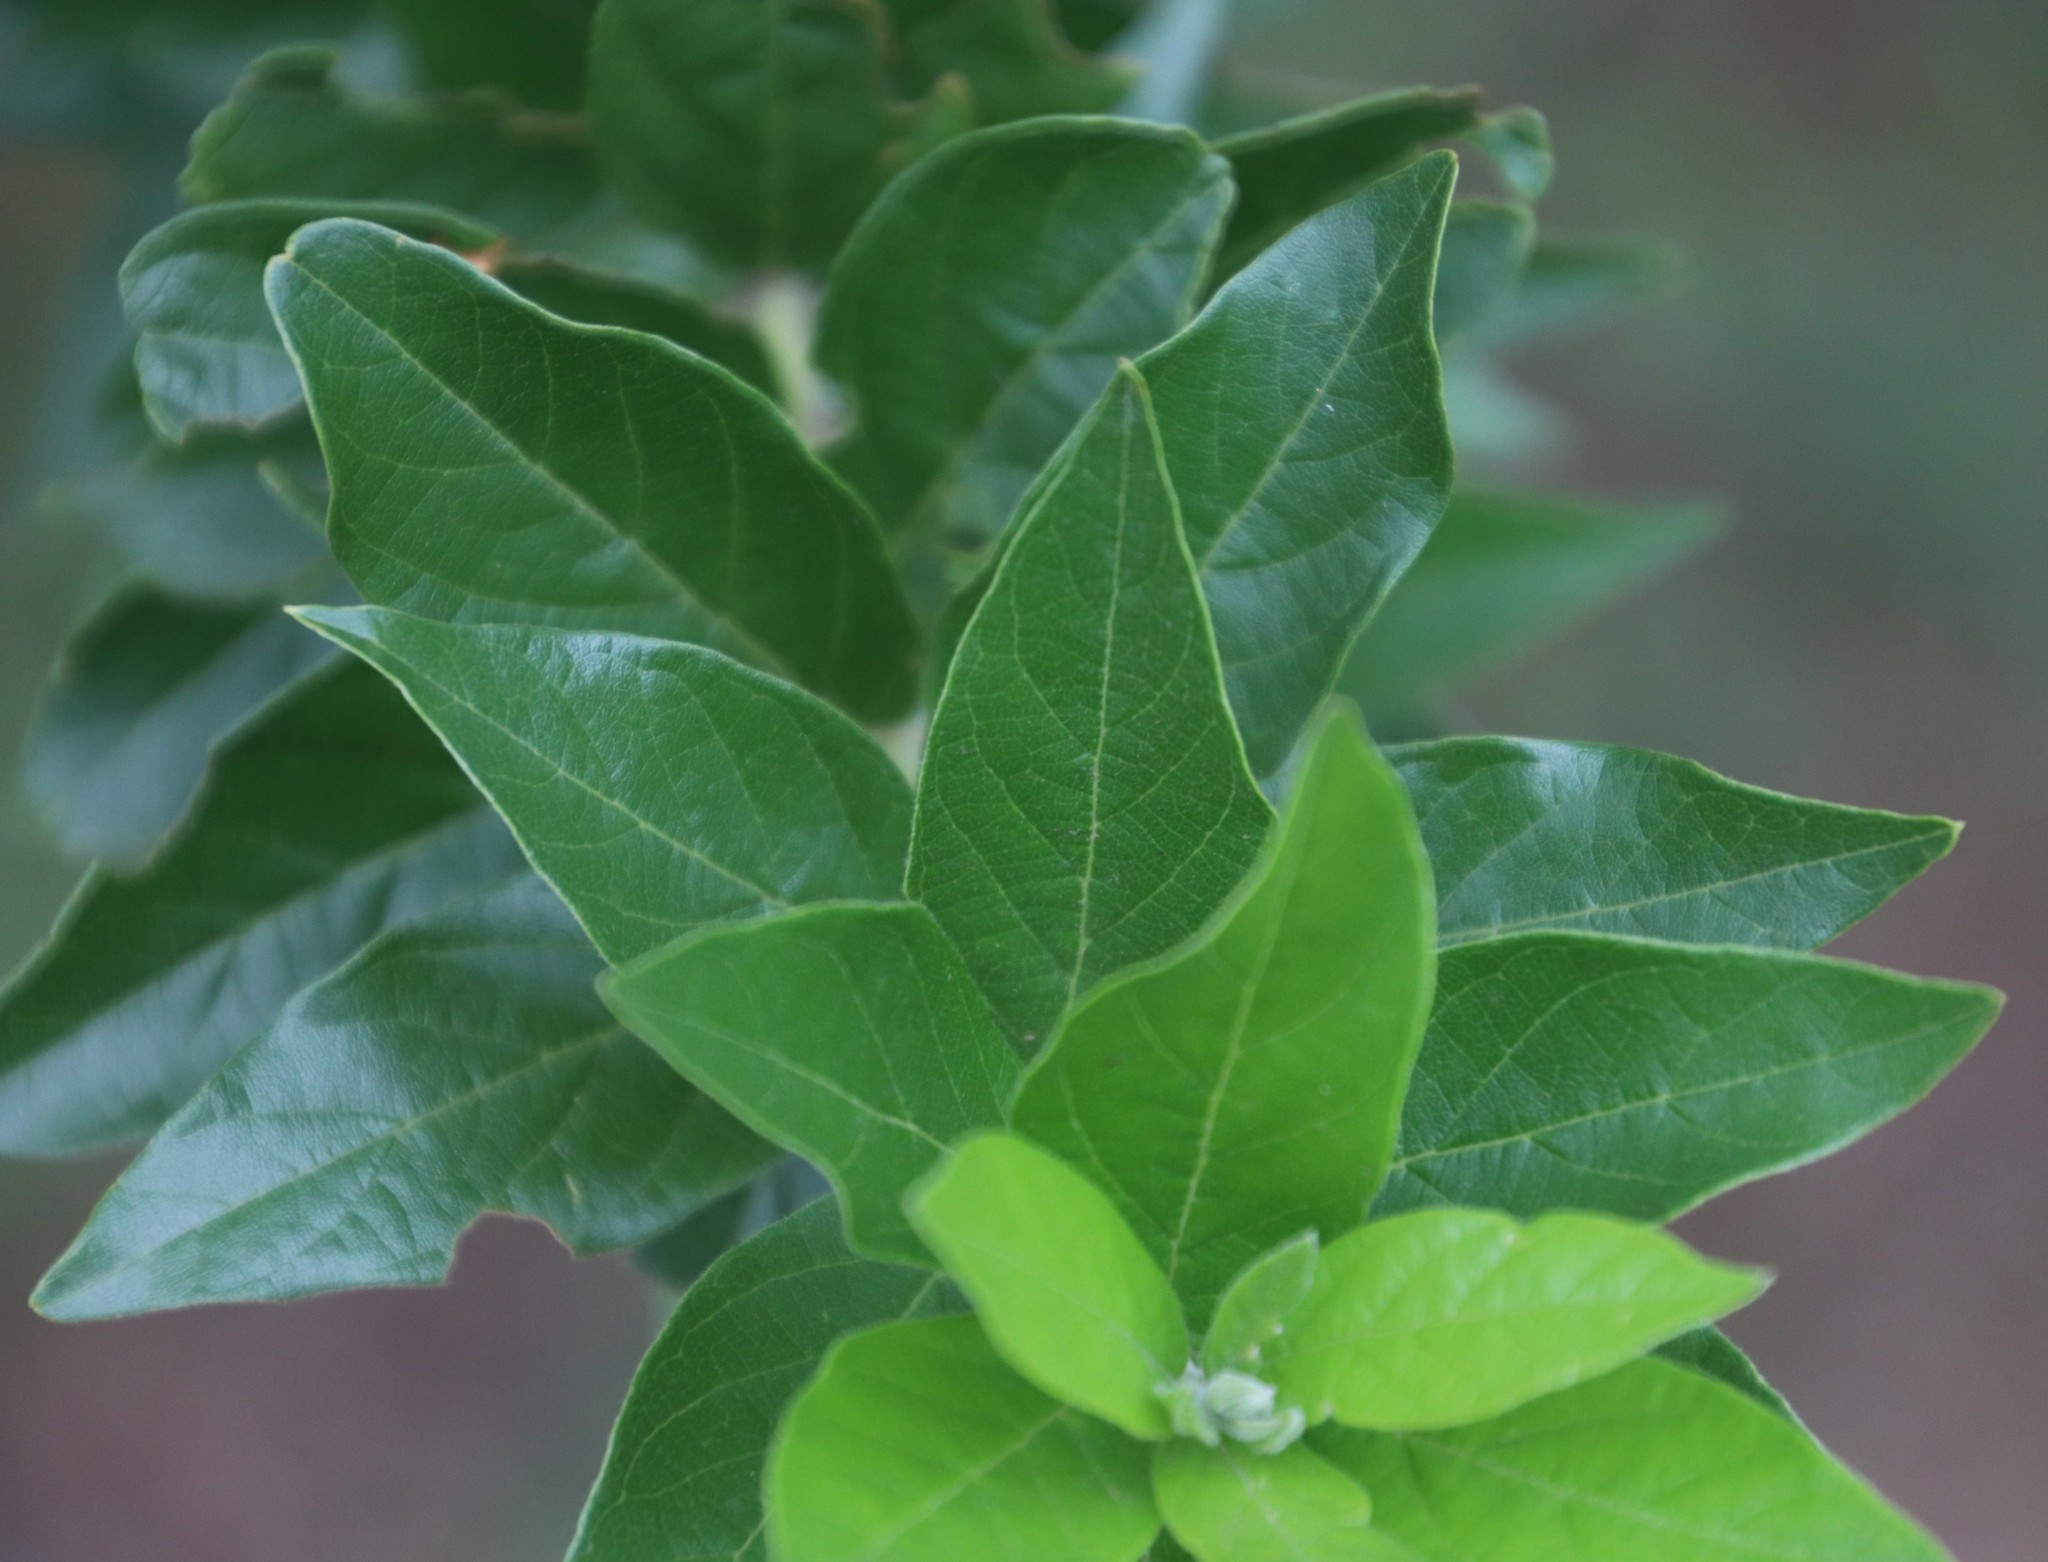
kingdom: Plantae
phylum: Tracheophyta
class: Magnoliopsida
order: Myrtales
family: Combretaceae
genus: Combretum
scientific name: Combretum erythrophyllum
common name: Bush-willow
